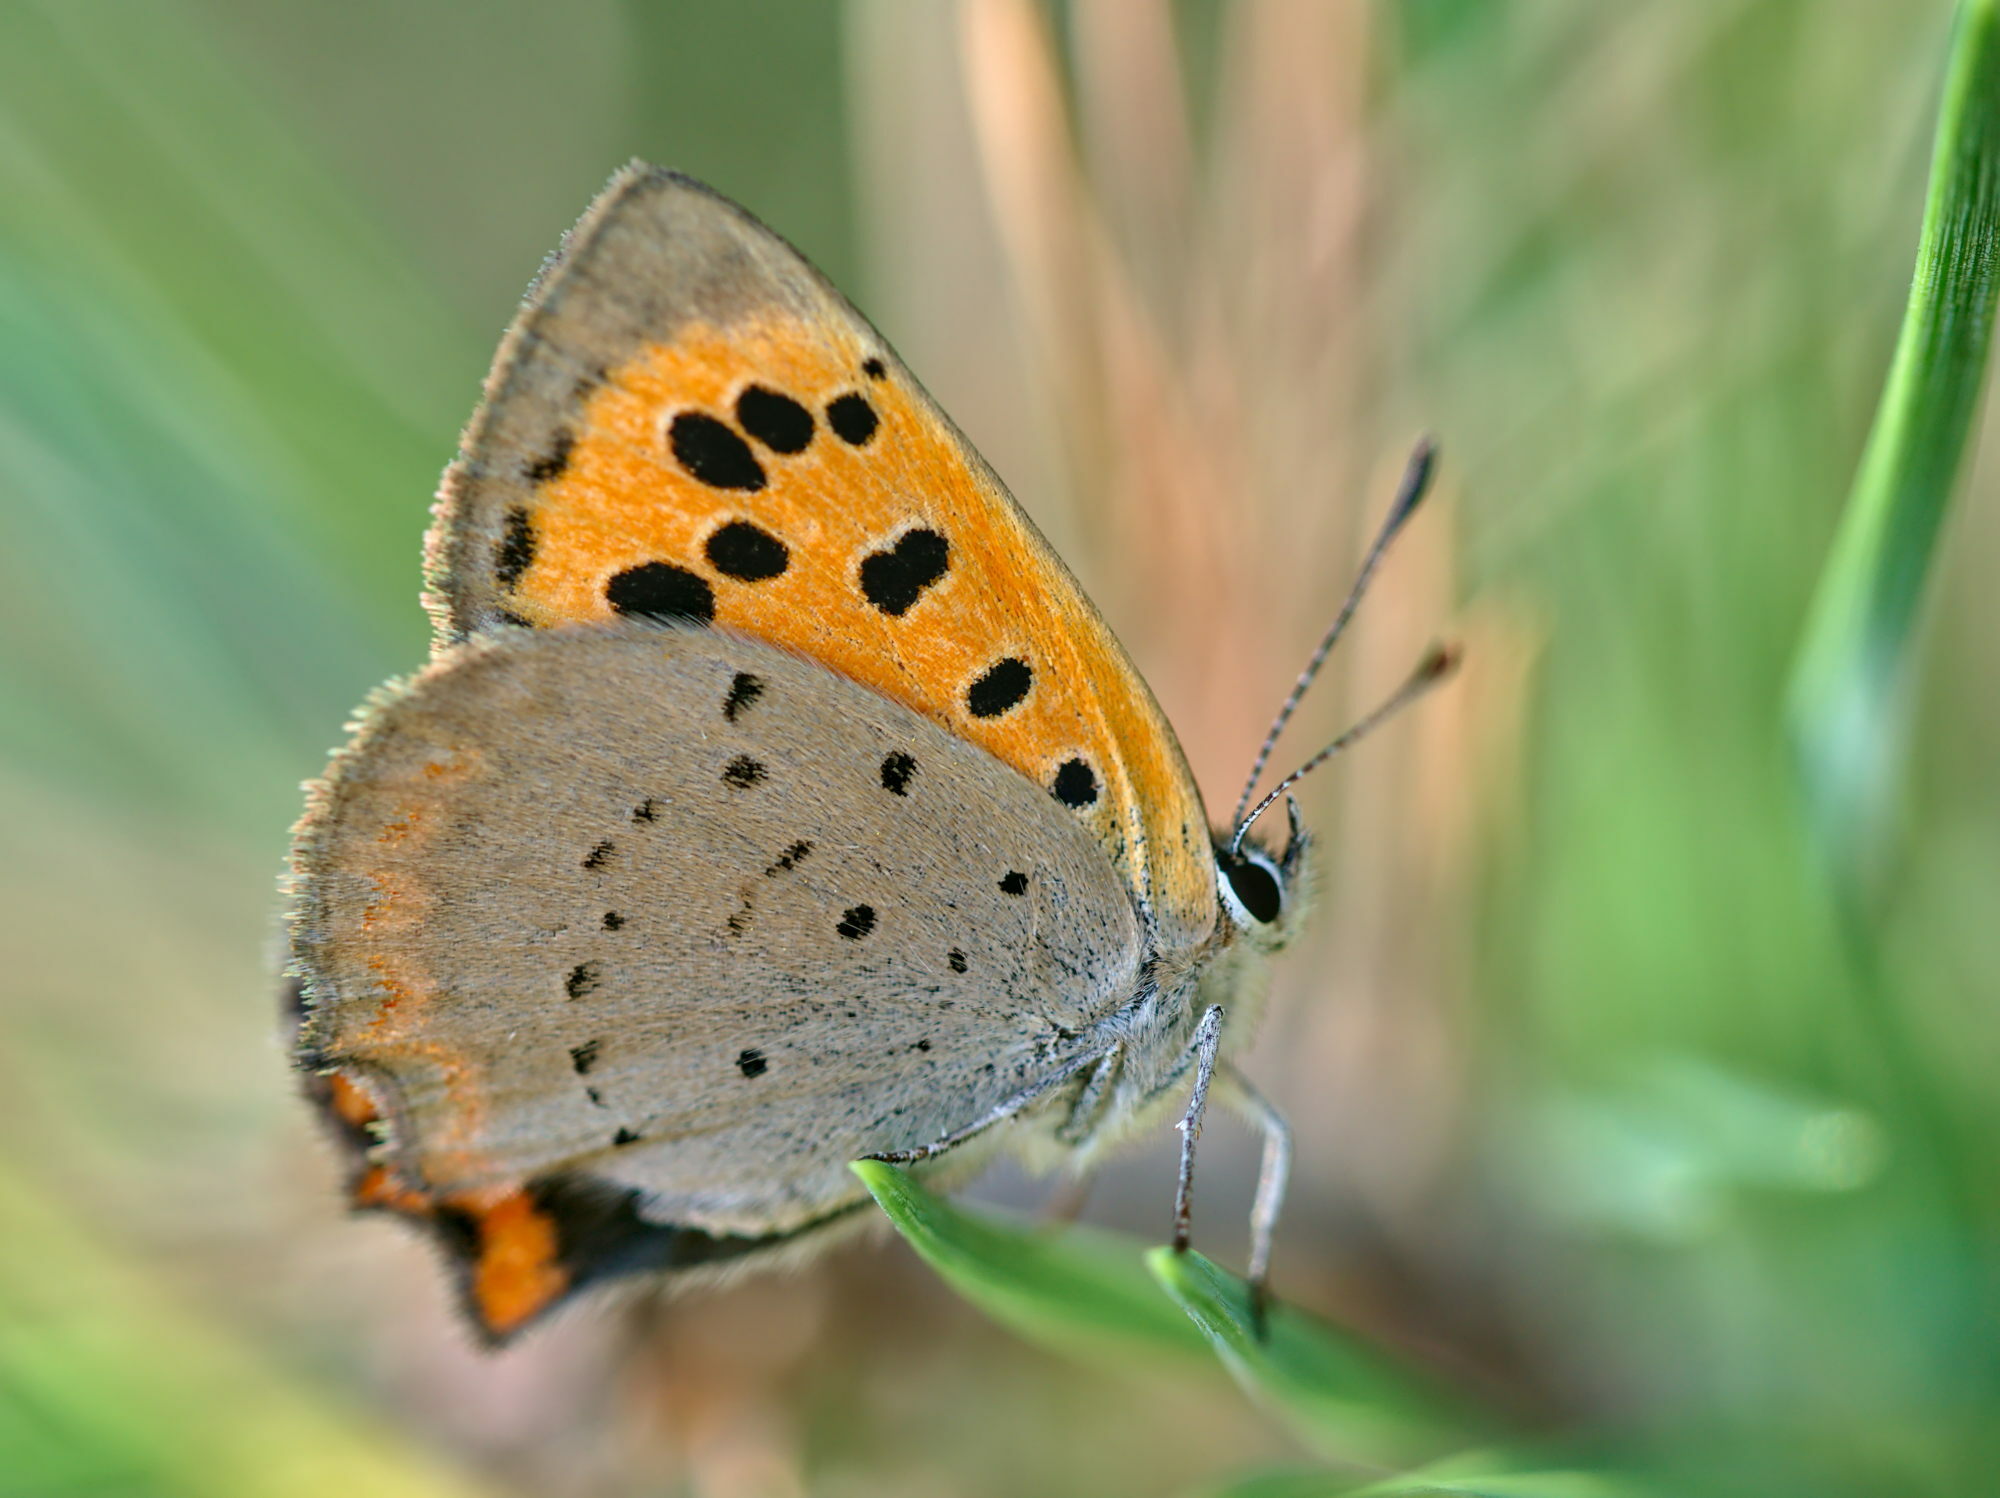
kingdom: Animalia
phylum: Arthropoda
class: Insecta
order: Lepidoptera
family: Lycaenidae
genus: Lycaena
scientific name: Lycaena phlaeas
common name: Small copper
